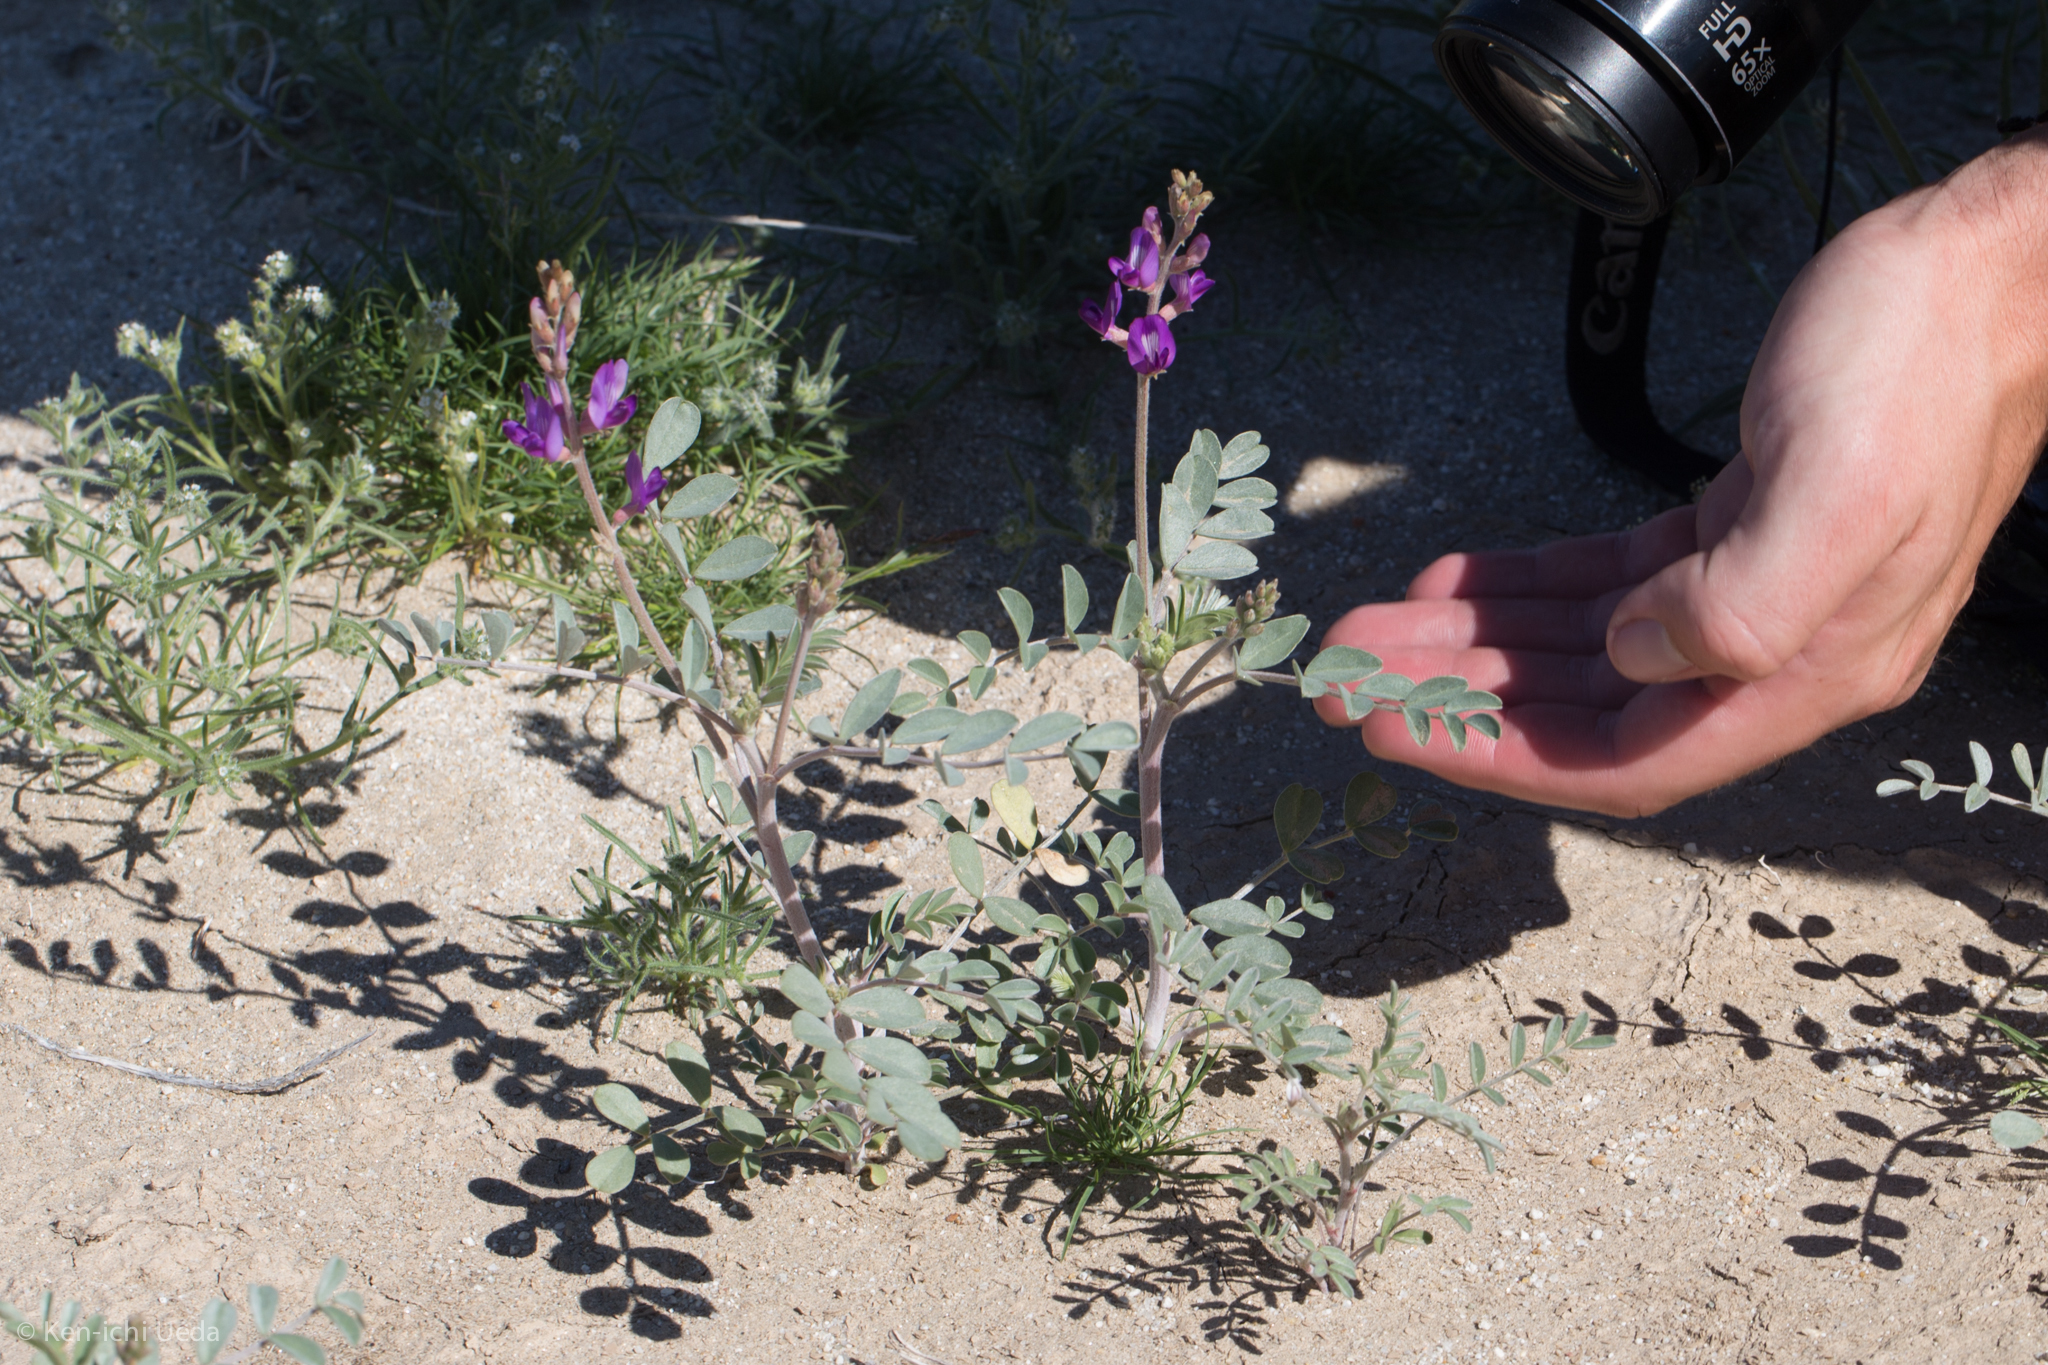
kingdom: Plantae
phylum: Tracheophyta
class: Magnoliopsida
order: Fabales
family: Fabaceae
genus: Astragalus
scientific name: Astragalus lentiginosus
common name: Freckled milkvetch
